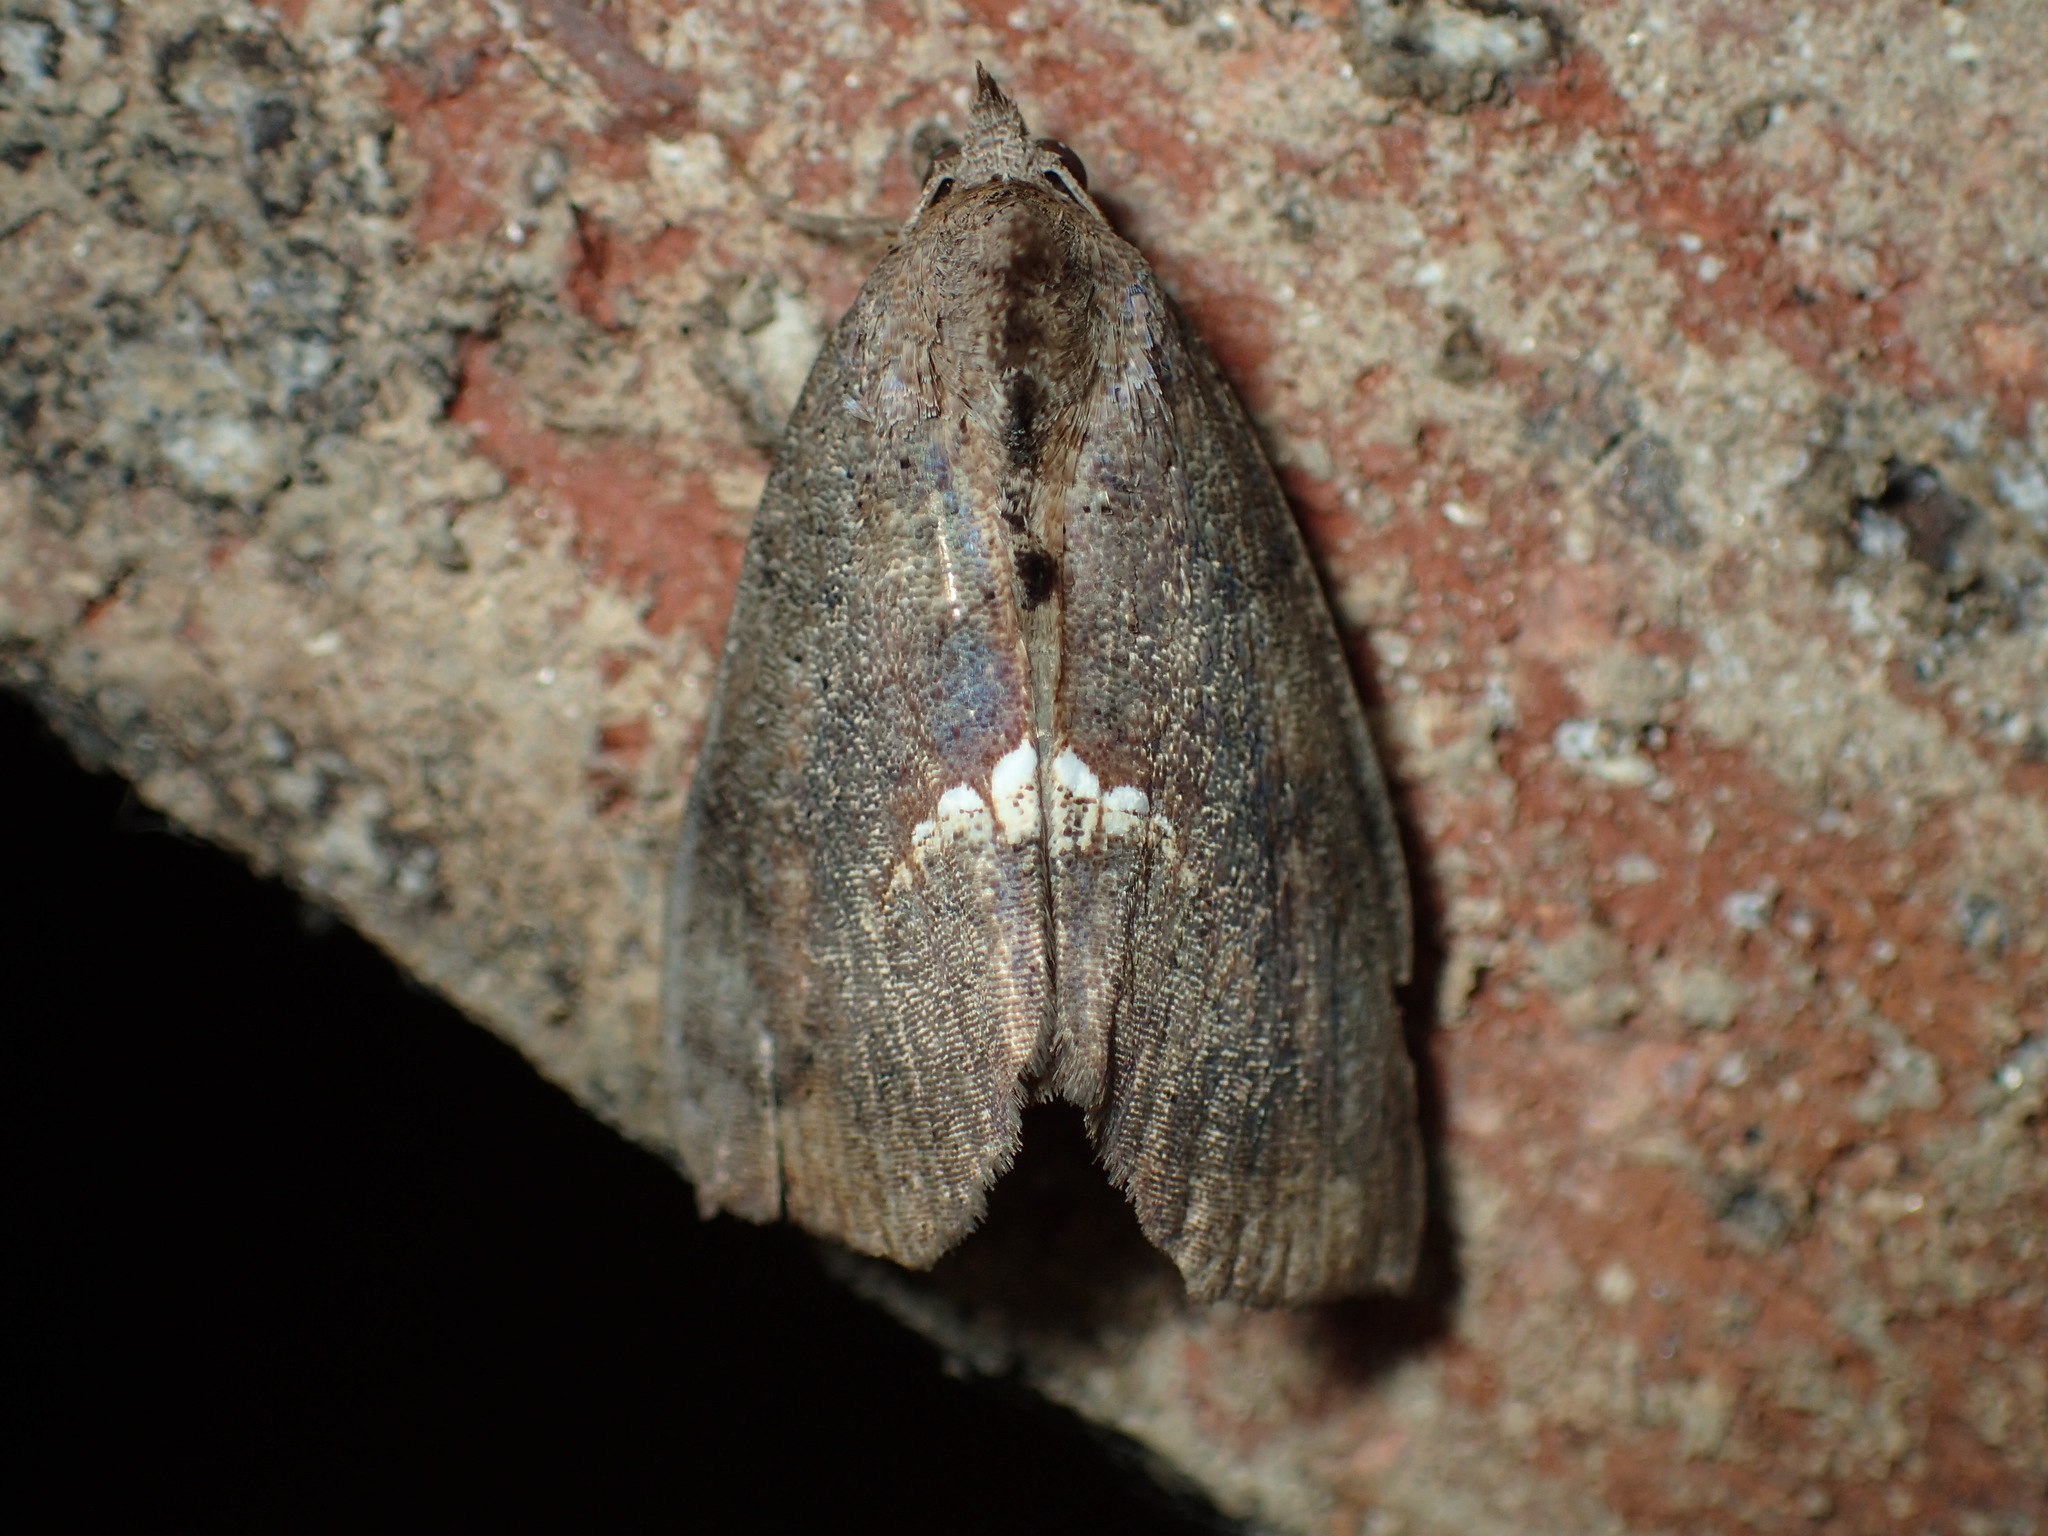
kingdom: Animalia
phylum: Arthropoda
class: Insecta
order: Lepidoptera
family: Erebidae
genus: Hypsoropha
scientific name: Hypsoropha hormos
